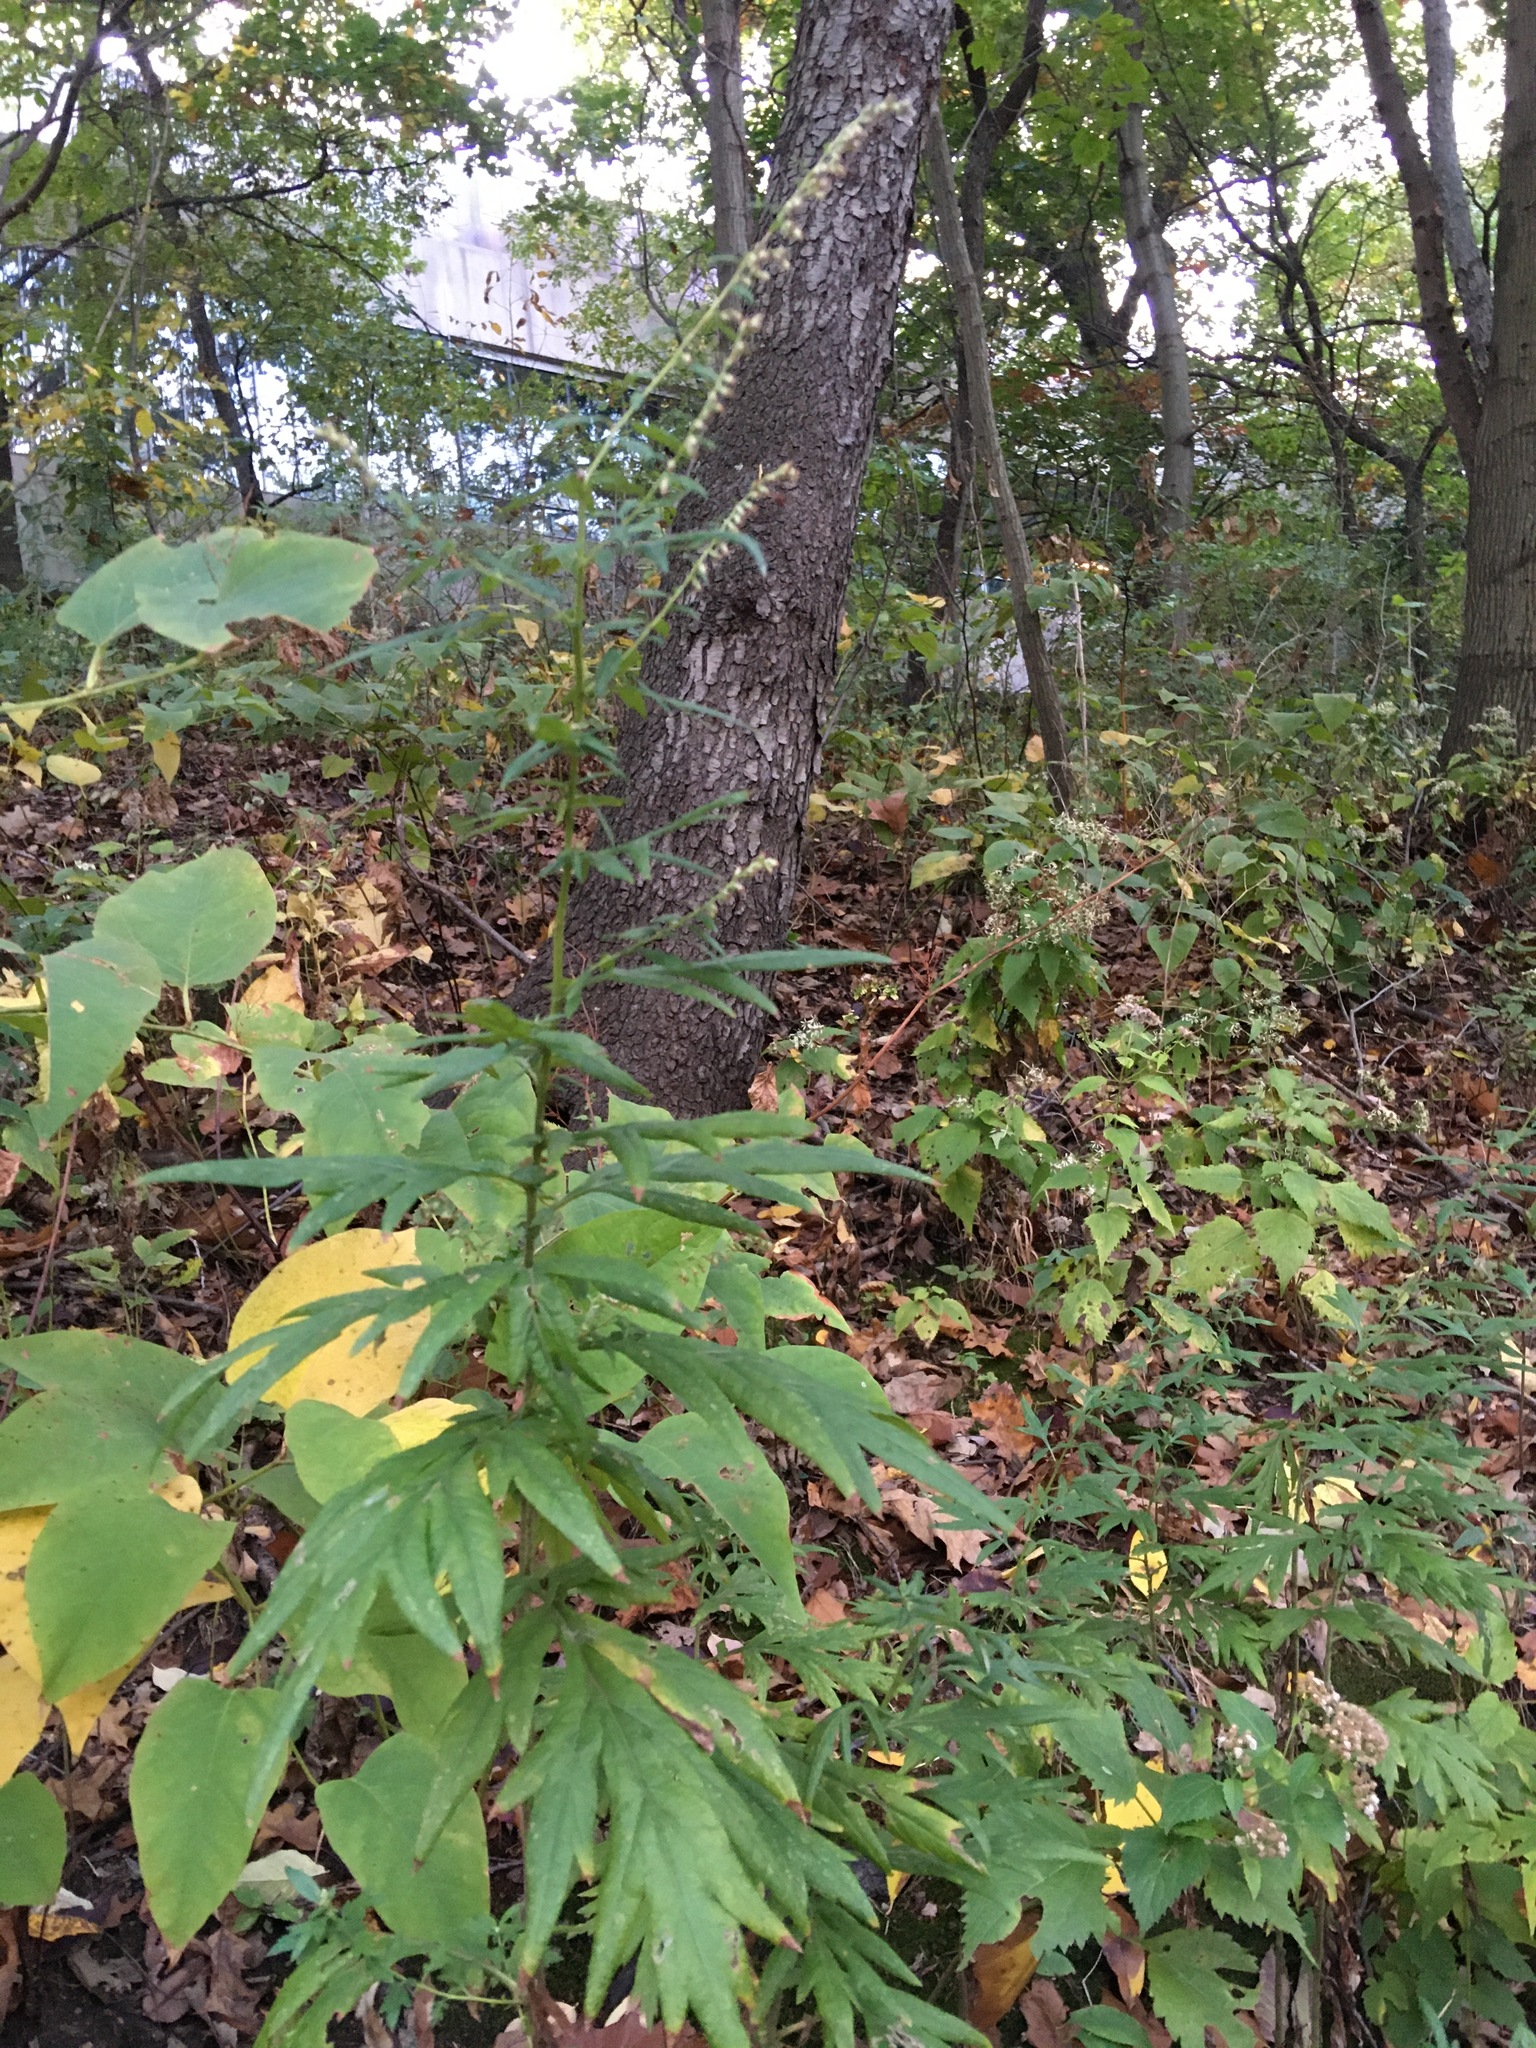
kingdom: Plantae
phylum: Tracheophyta
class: Magnoliopsida
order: Asterales
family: Asteraceae
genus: Artemisia
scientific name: Artemisia vulgaris
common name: Mugwort
